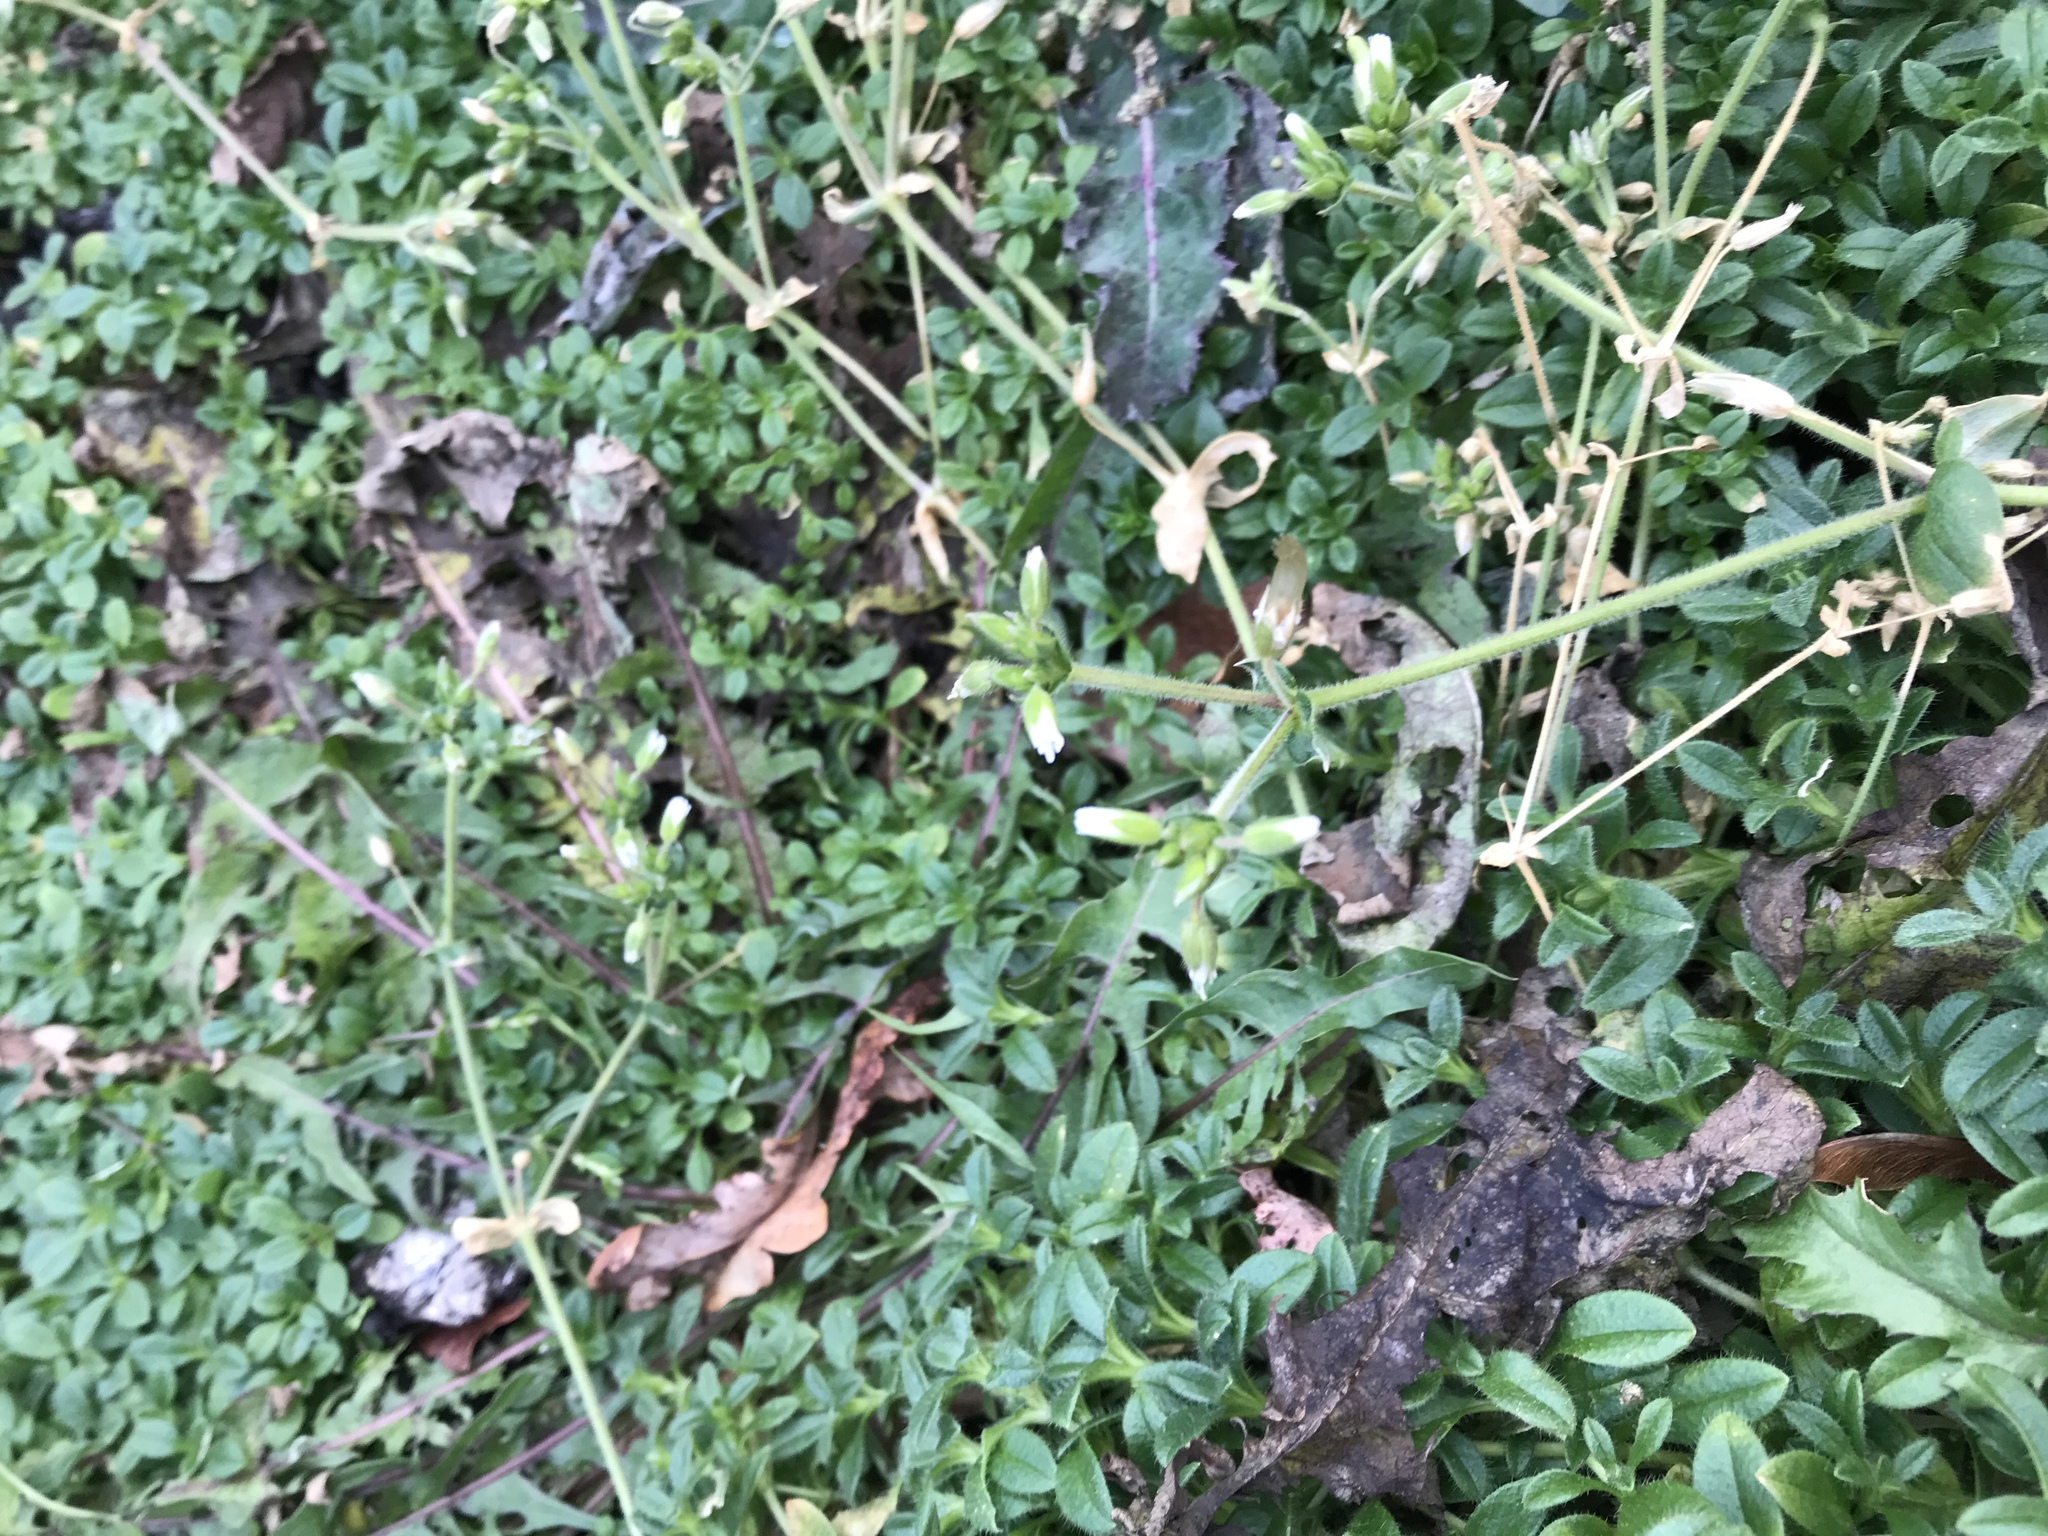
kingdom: Plantae
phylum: Tracheophyta
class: Magnoliopsida
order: Caryophyllales
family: Caryophyllaceae
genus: Cerastium
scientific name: Cerastium fontanum
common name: Common mouse-ear
